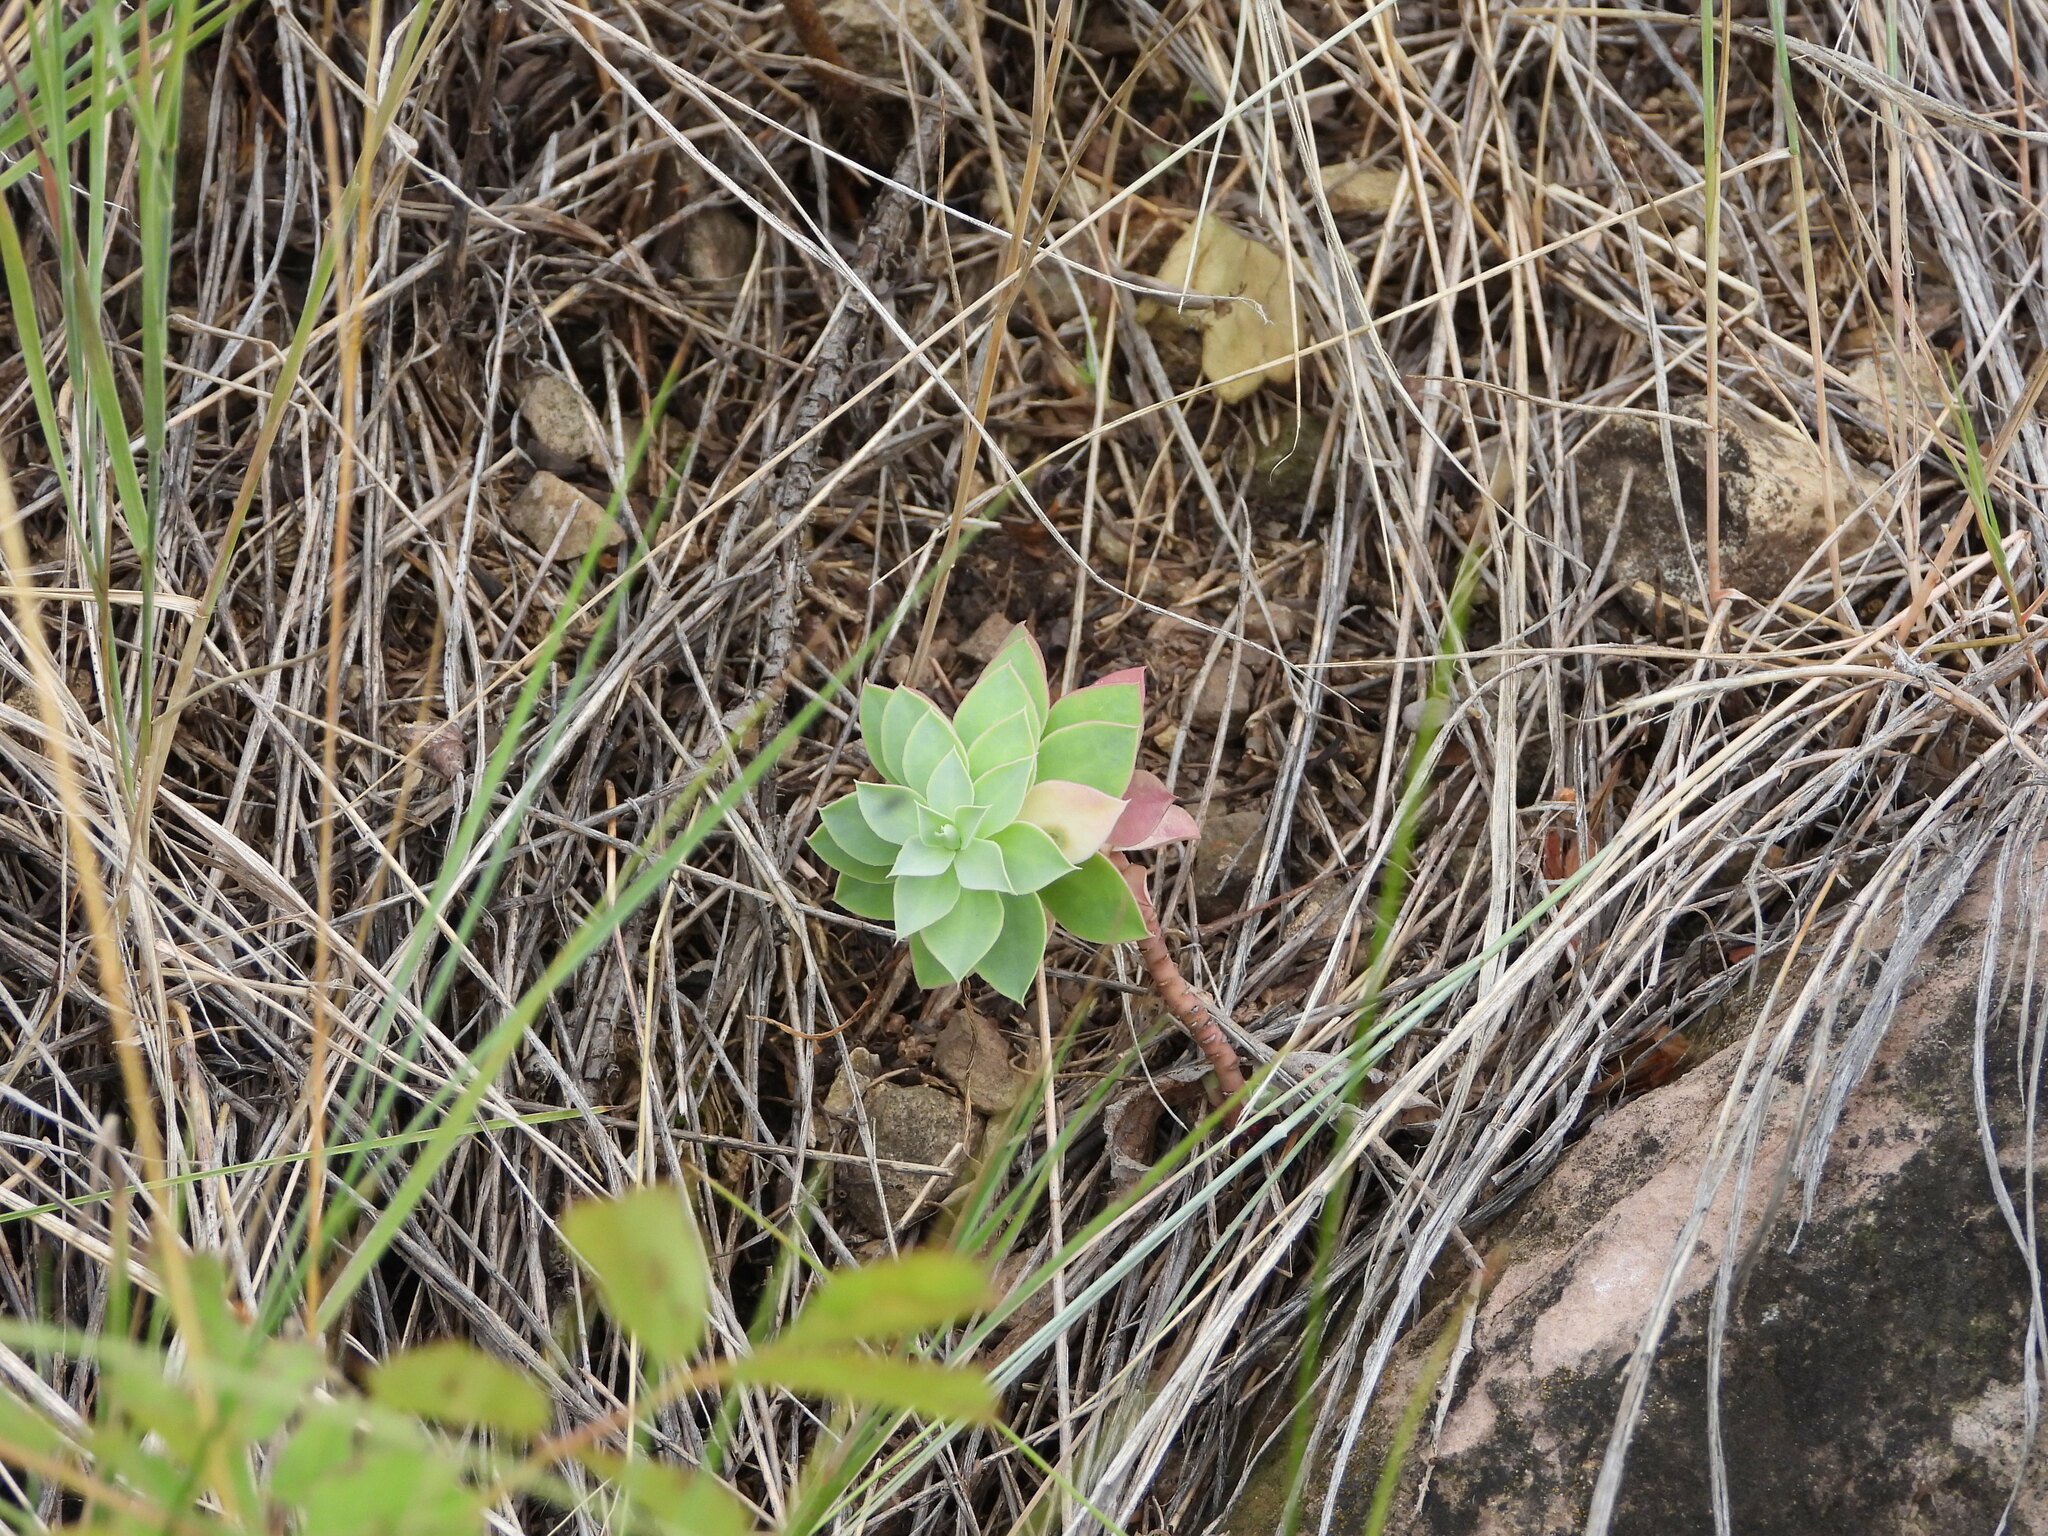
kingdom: Plantae
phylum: Tracheophyta
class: Magnoliopsida
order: Malpighiales
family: Euphorbiaceae
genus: Euphorbia
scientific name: Euphorbia myrsinites
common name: Myrtle spurge
